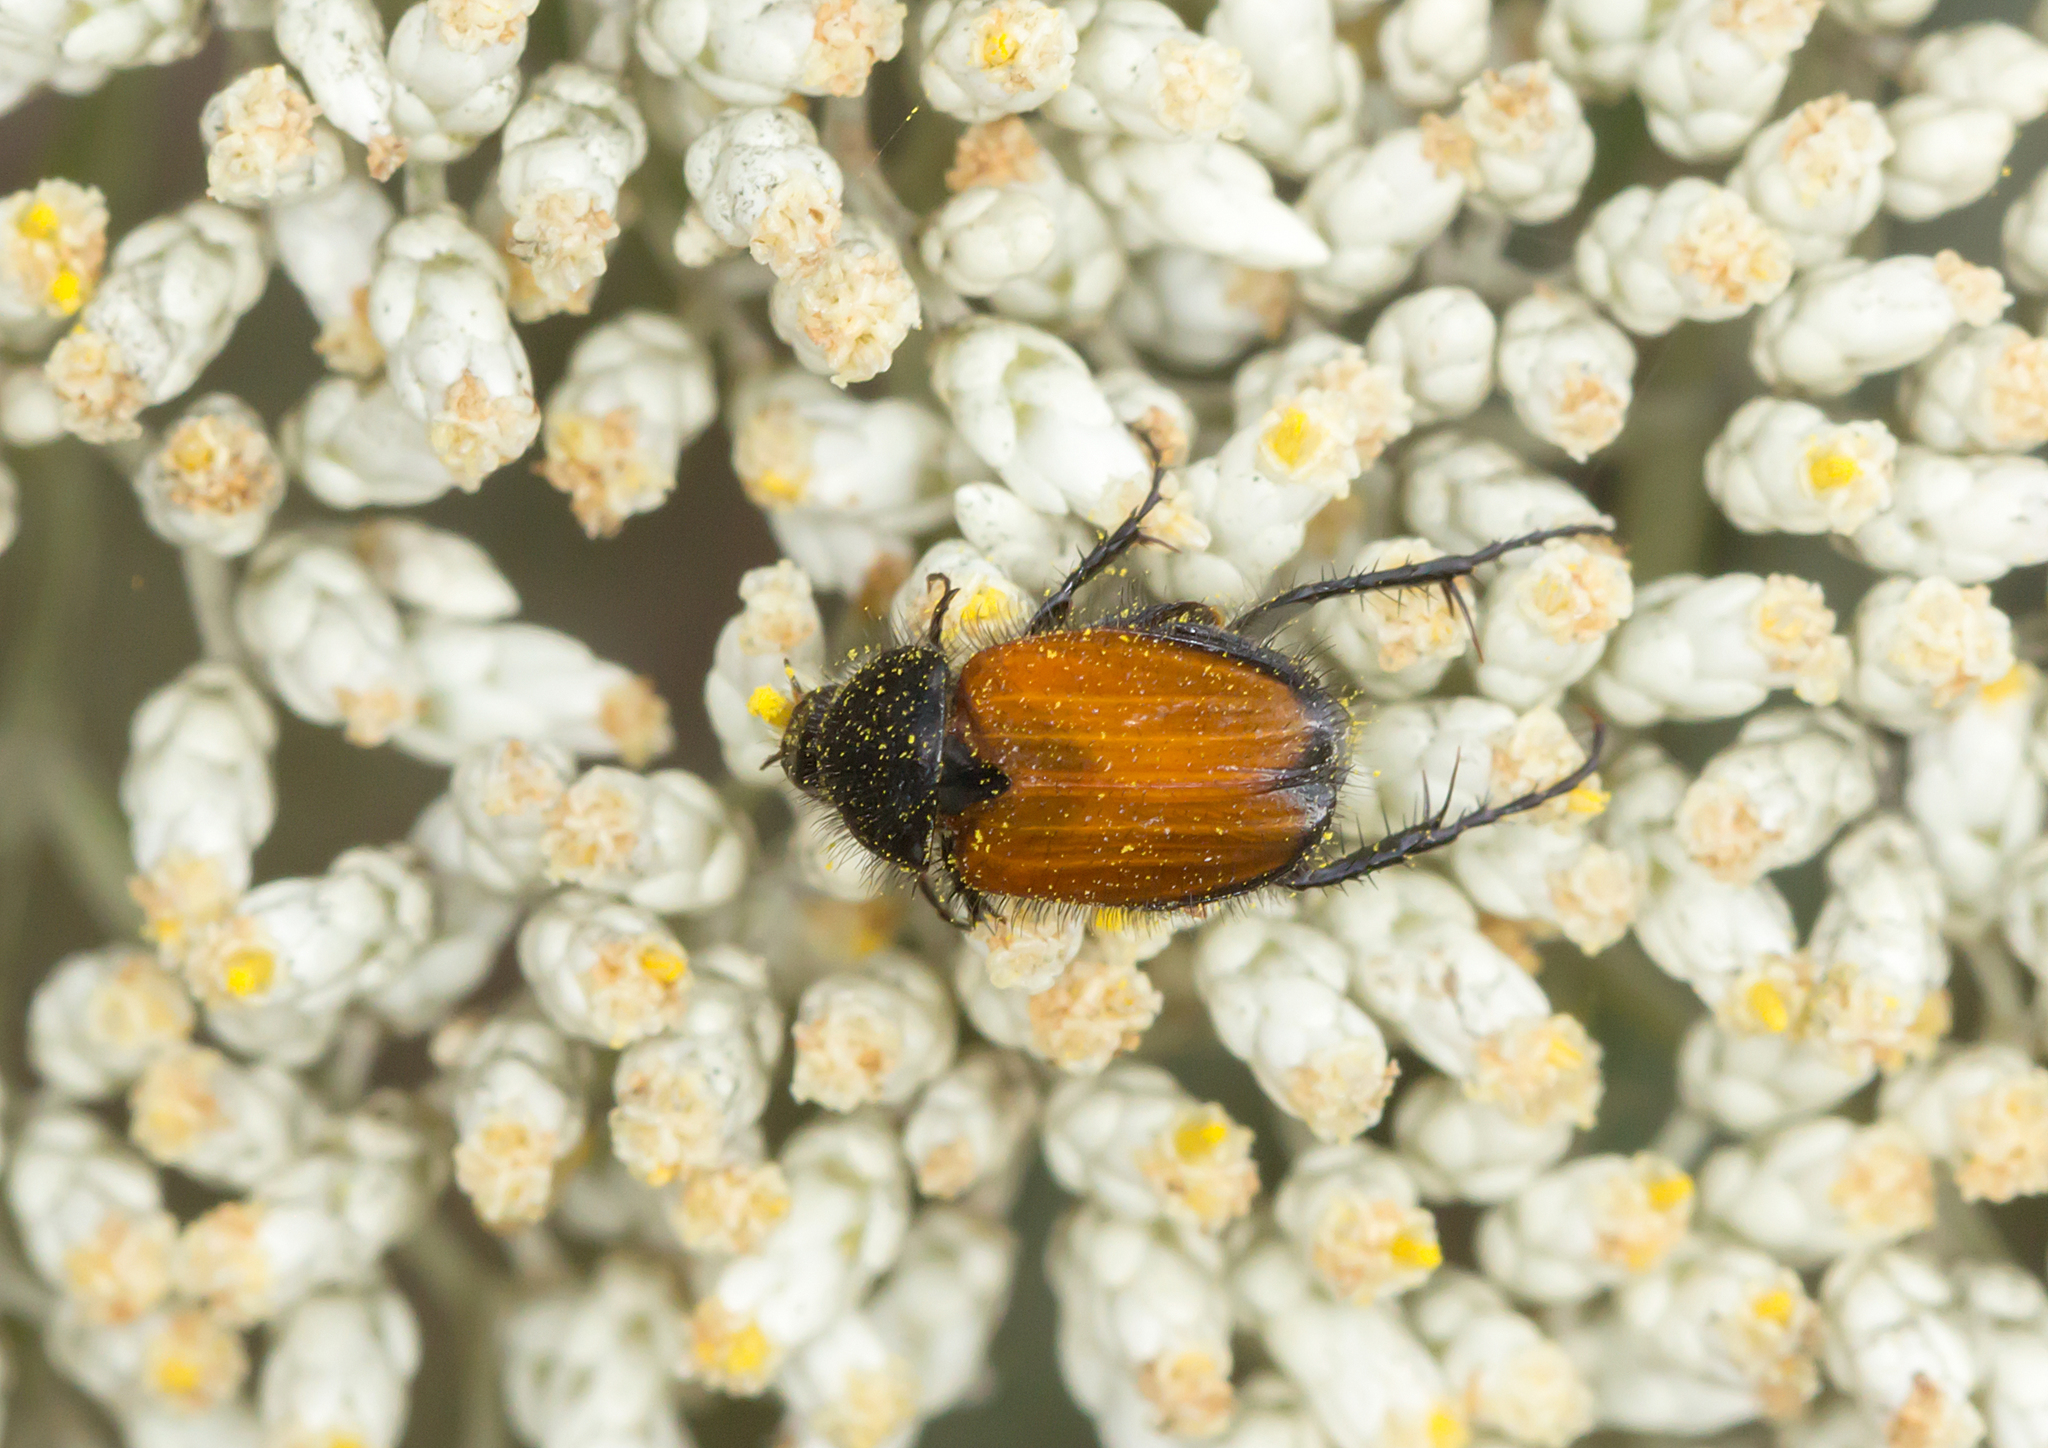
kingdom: Animalia
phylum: Arthropoda
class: Insecta
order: Coleoptera
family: Scarabaeidae
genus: Phyllotocus
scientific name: Phyllotocus rufipennis
